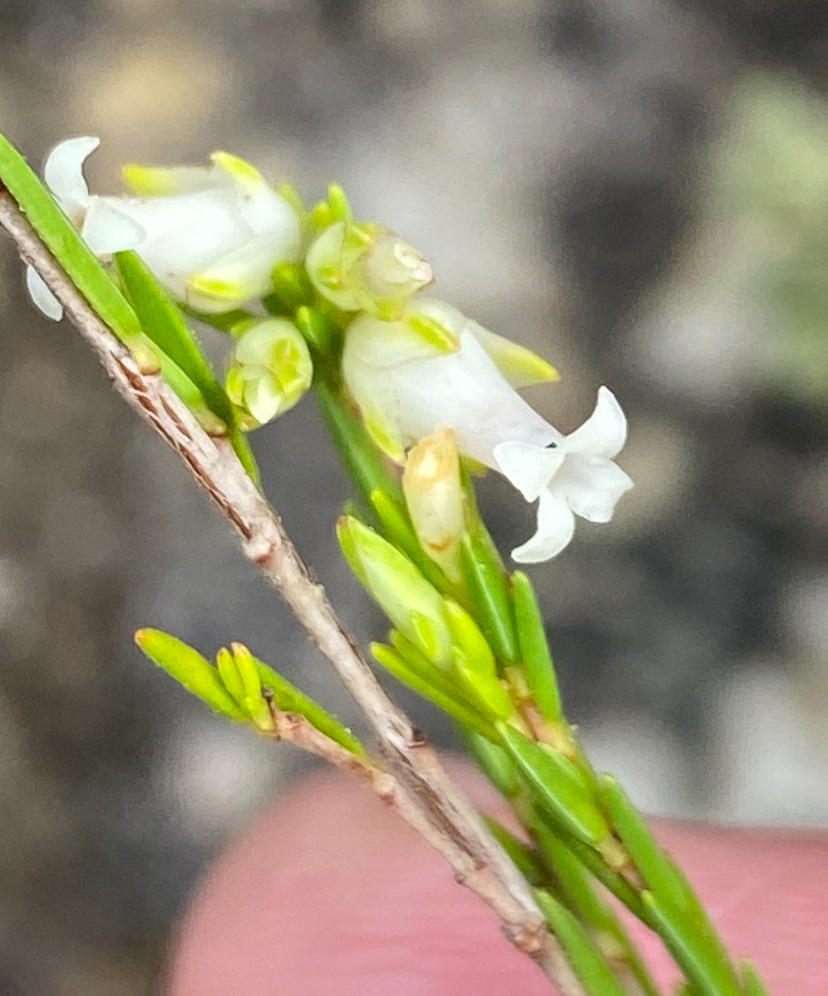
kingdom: Plantae
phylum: Tracheophyta
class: Magnoliopsida
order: Ericales
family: Ericaceae
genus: Erica
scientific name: Erica lutea
